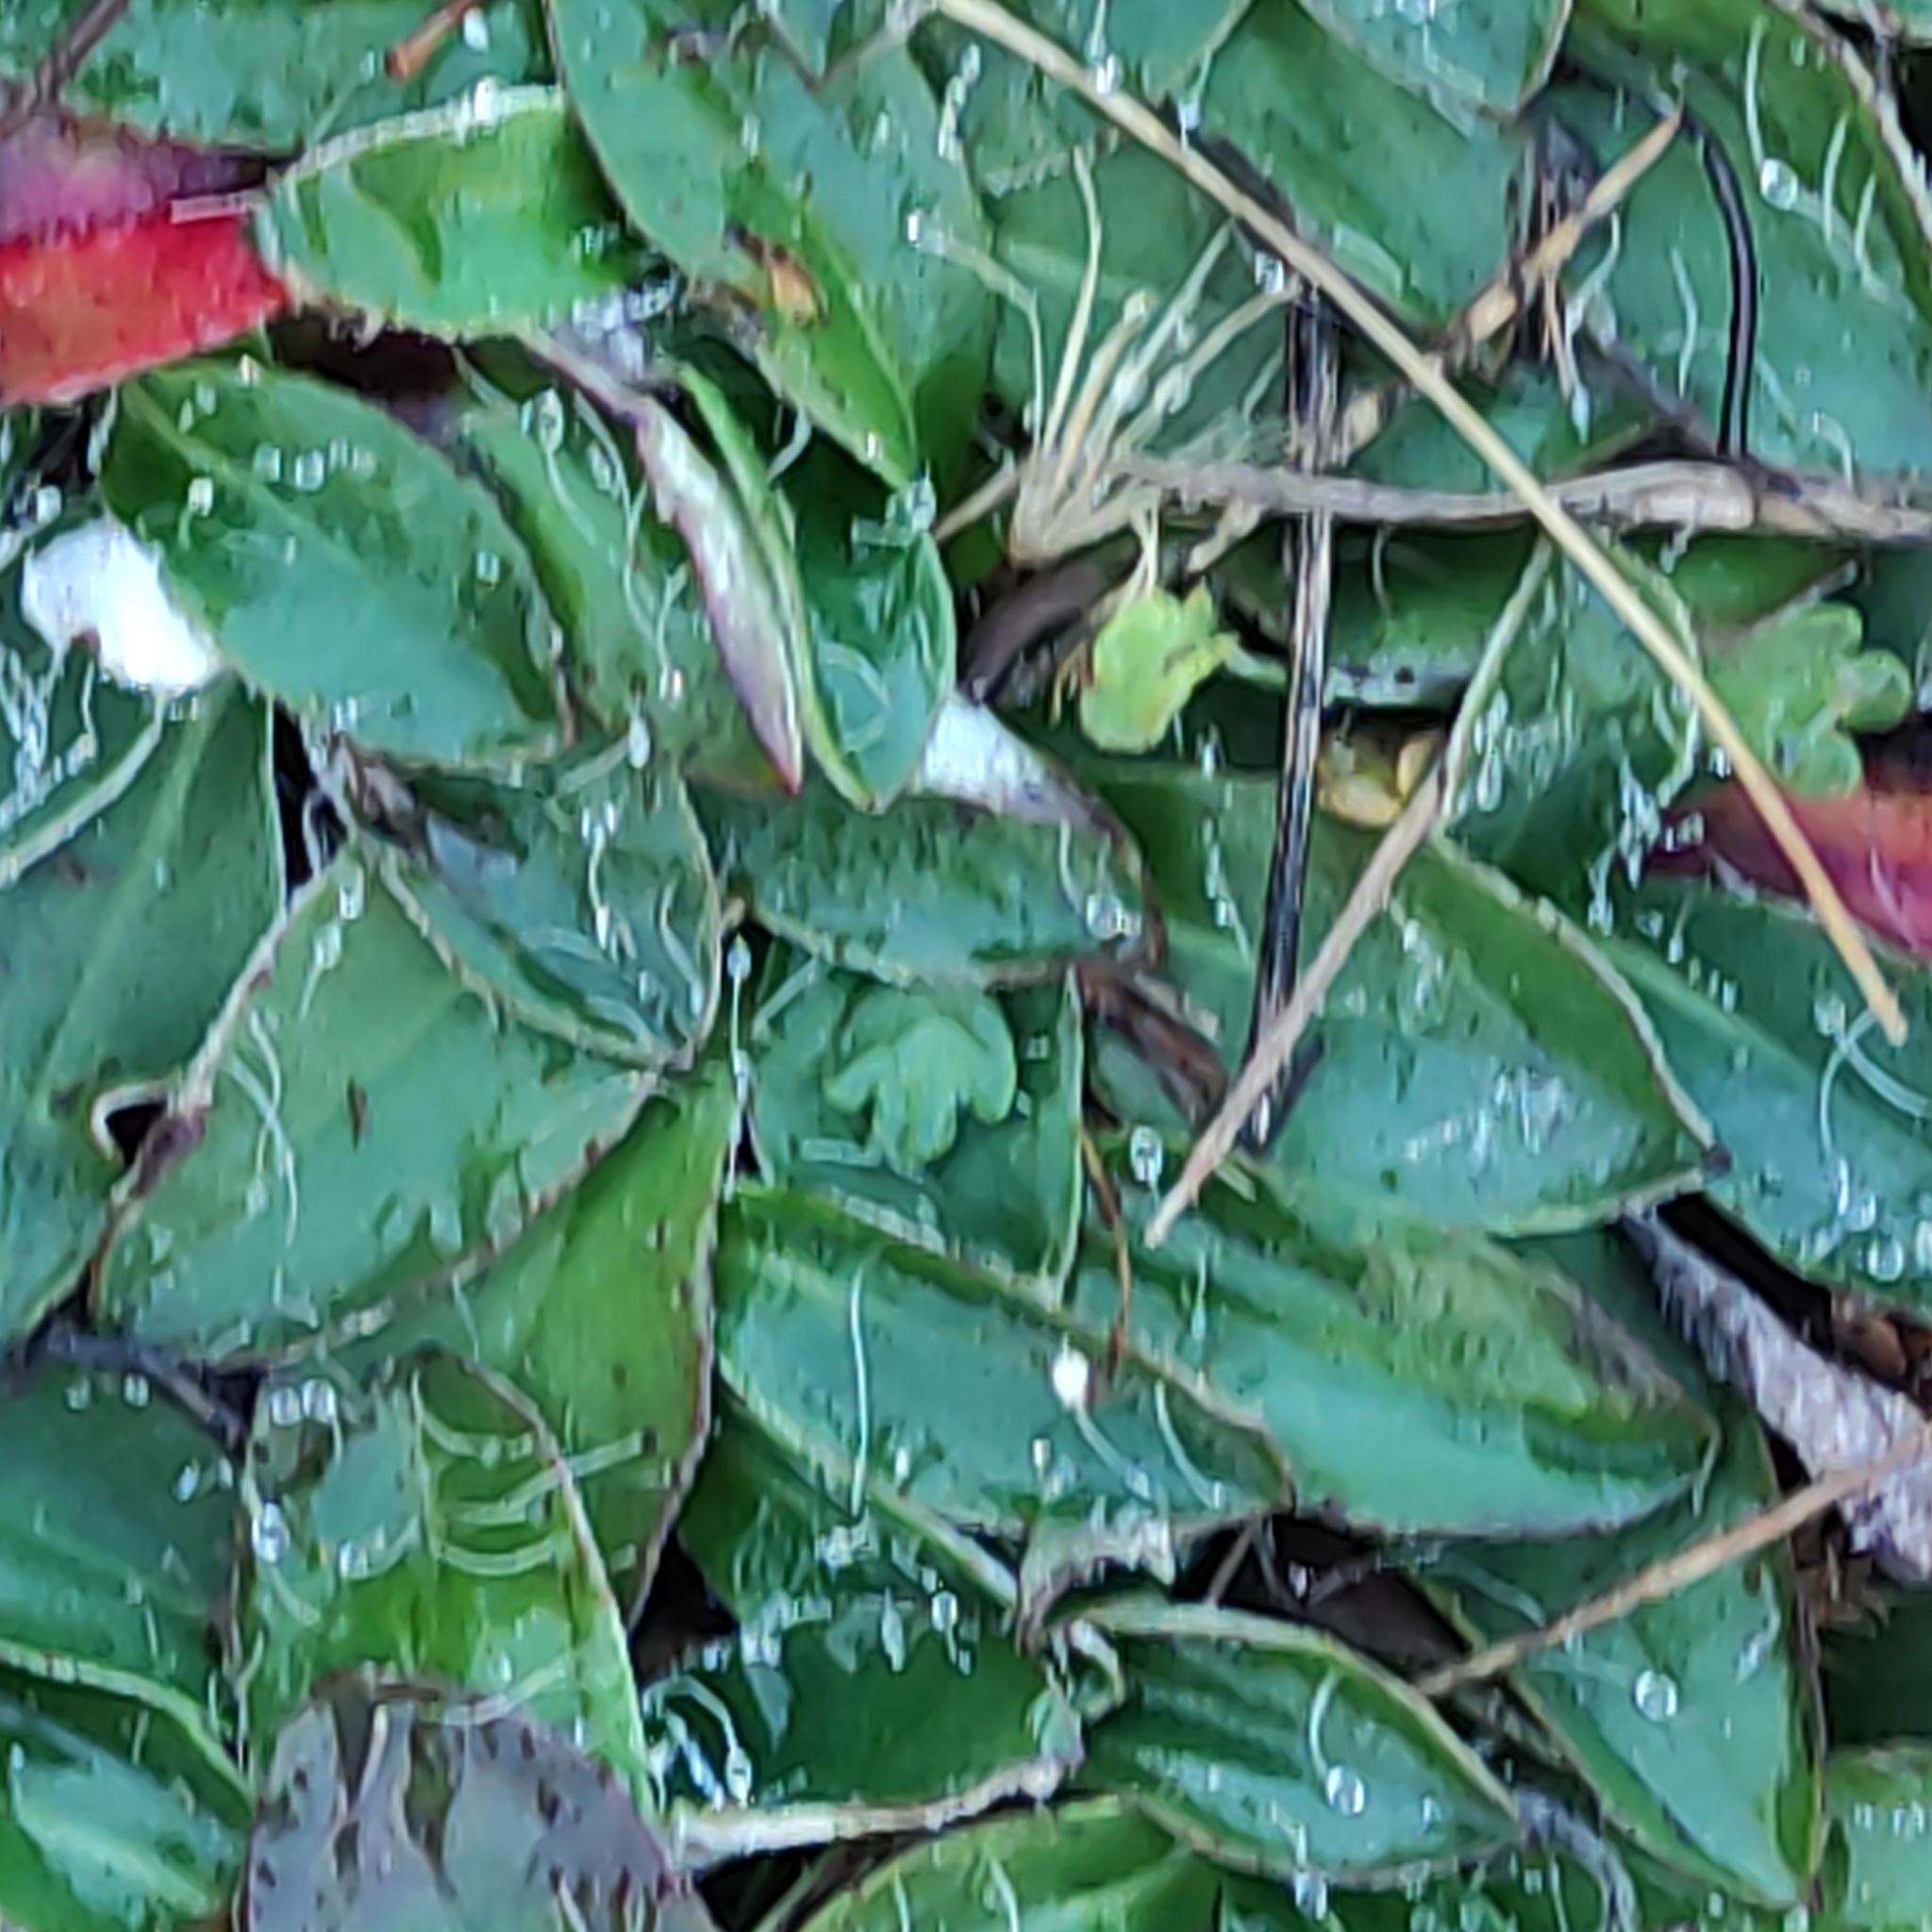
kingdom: Plantae
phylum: Tracheophyta
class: Magnoliopsida
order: Asterales
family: Asteraceae
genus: Pilosella
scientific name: Pilosella officinarum
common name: Mouse-ear hawkweed
